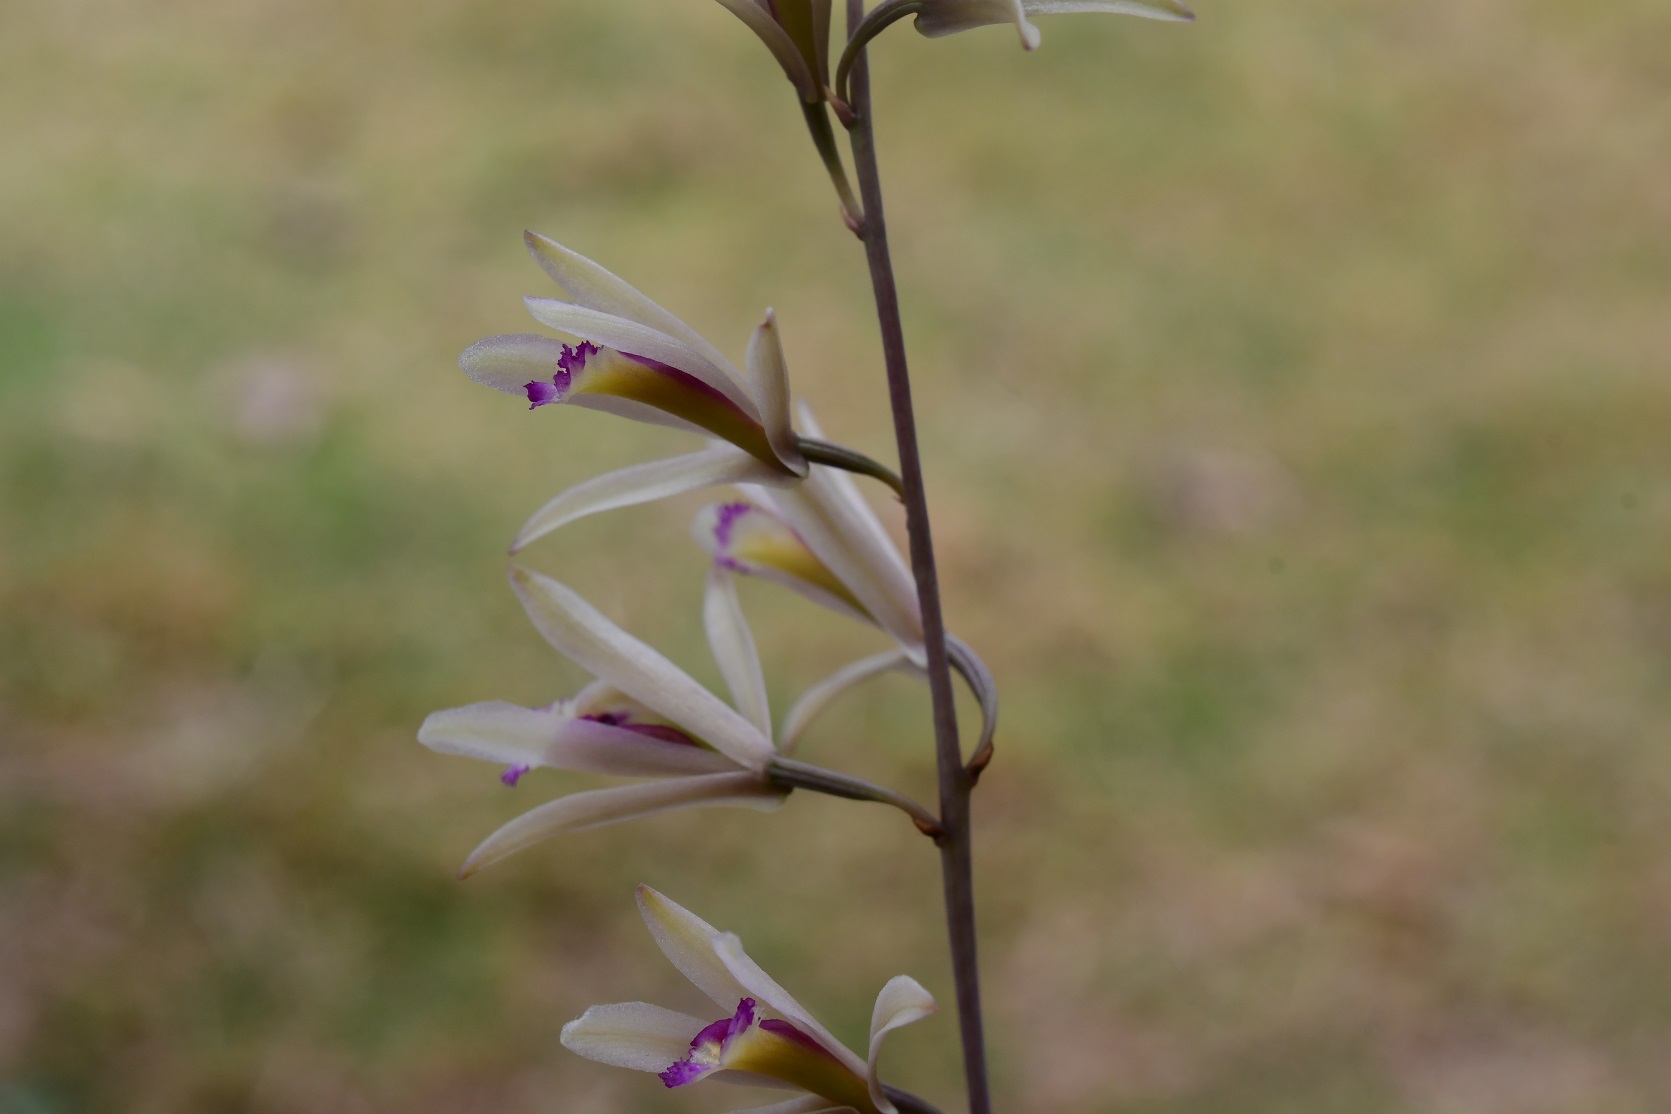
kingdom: Plantae
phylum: Tracheophyta
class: Liliopsida
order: Asparagales
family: Orchidaceae
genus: Bletia
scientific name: Bletia parkinsonii
